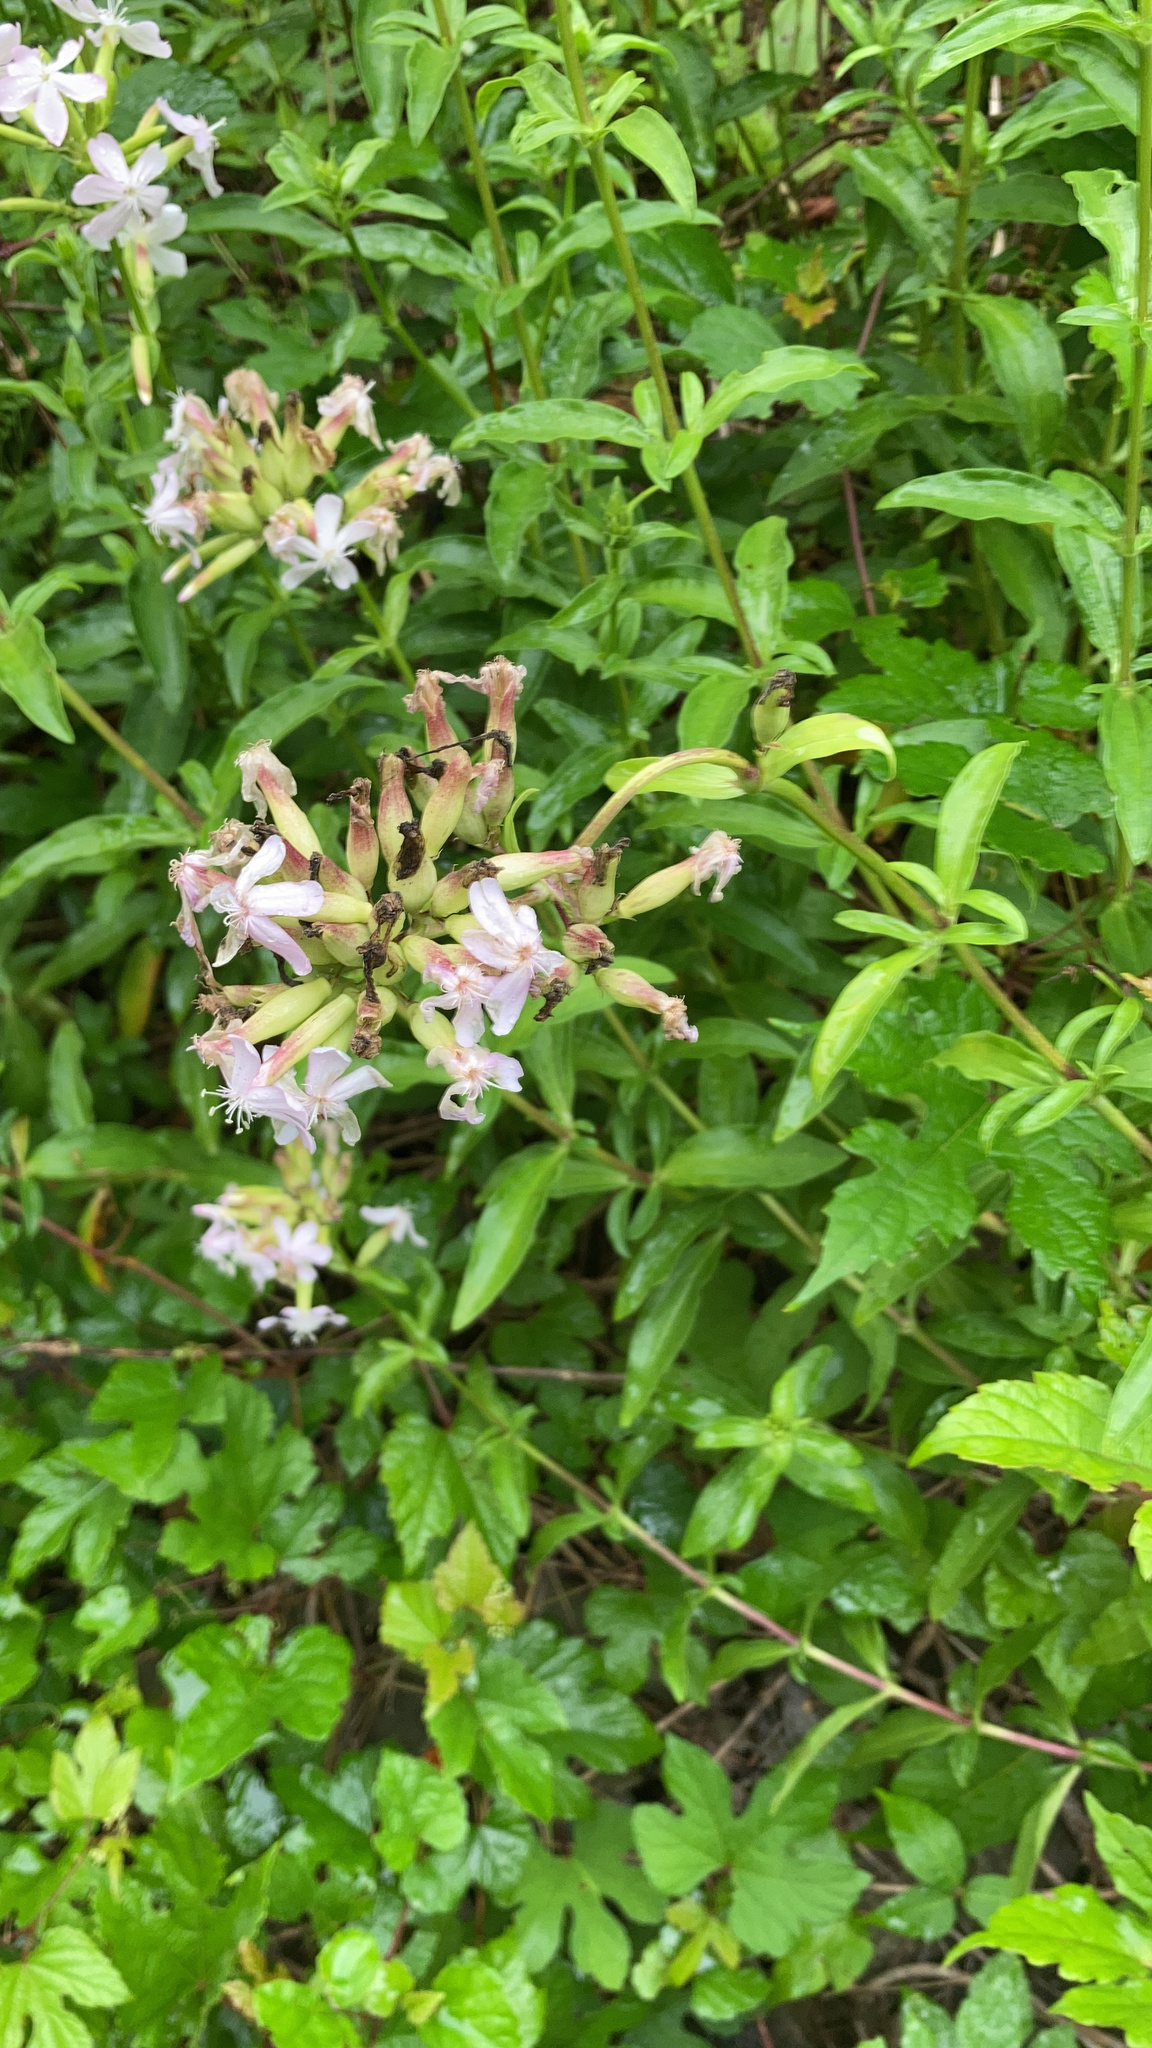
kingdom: Plantae
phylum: Tracheophyta
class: Magnoliopsida
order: Caryophyllales
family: Caryophyllaceae
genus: Saponaria
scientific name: Saponaria officinalis
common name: Soapwort
